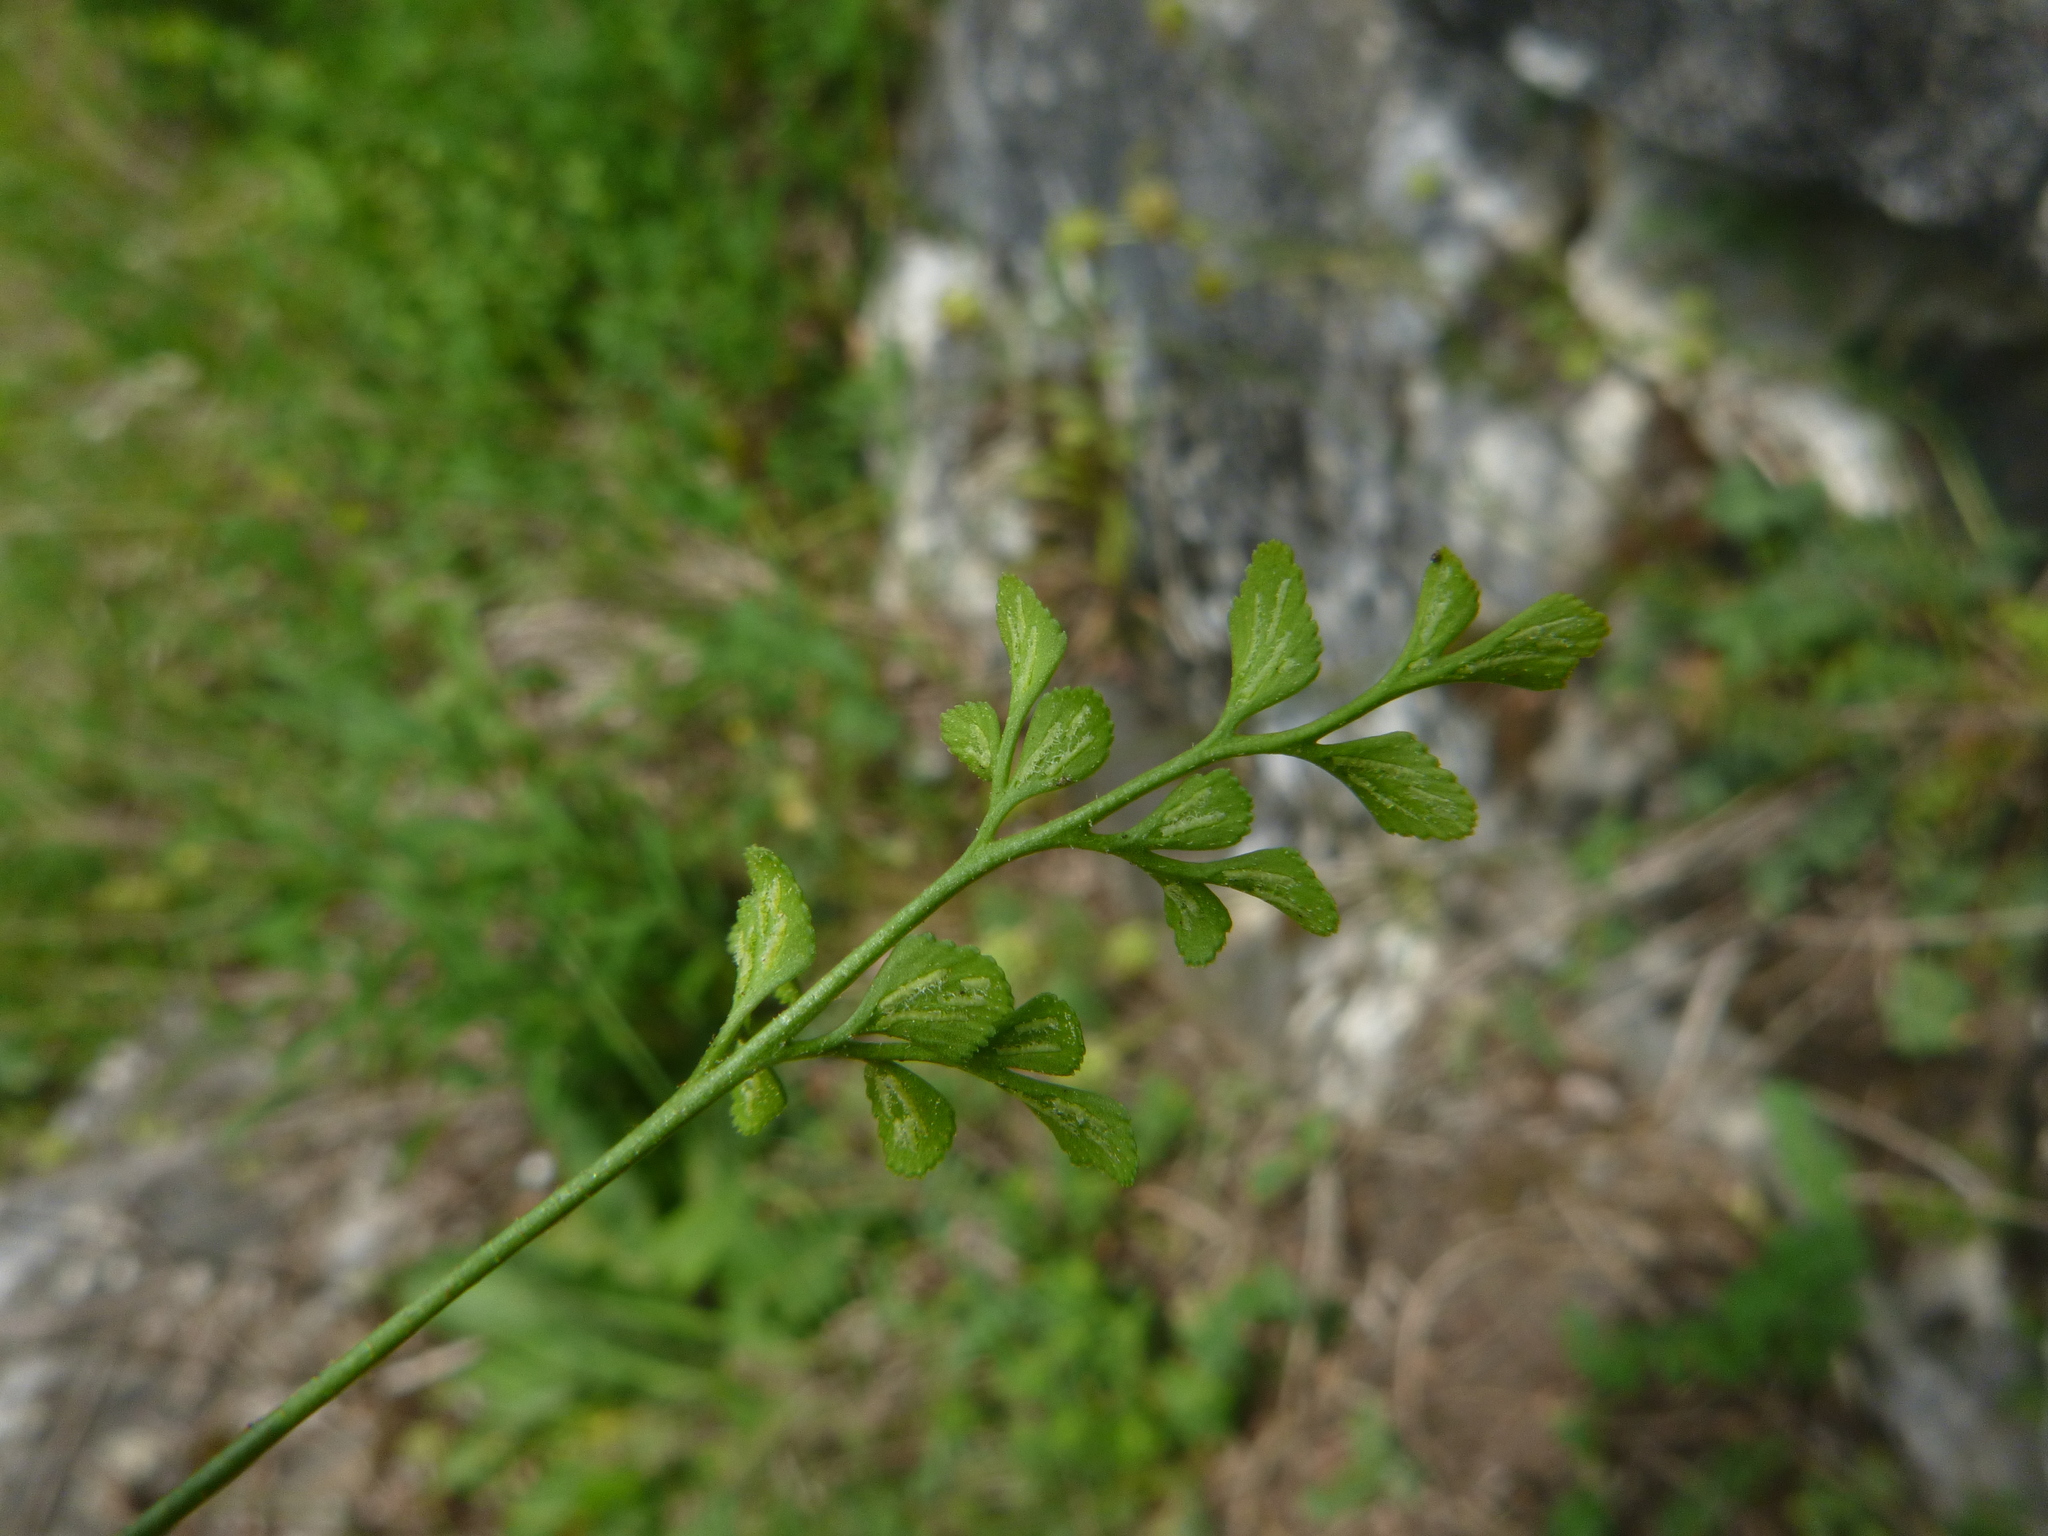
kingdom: Plantae
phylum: Tracheophyta
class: Polypodiopsida
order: Polypodiales
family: Aspleniaceae
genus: Asplenium
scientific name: Asplenium ruta-muraria
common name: Wall-rue
